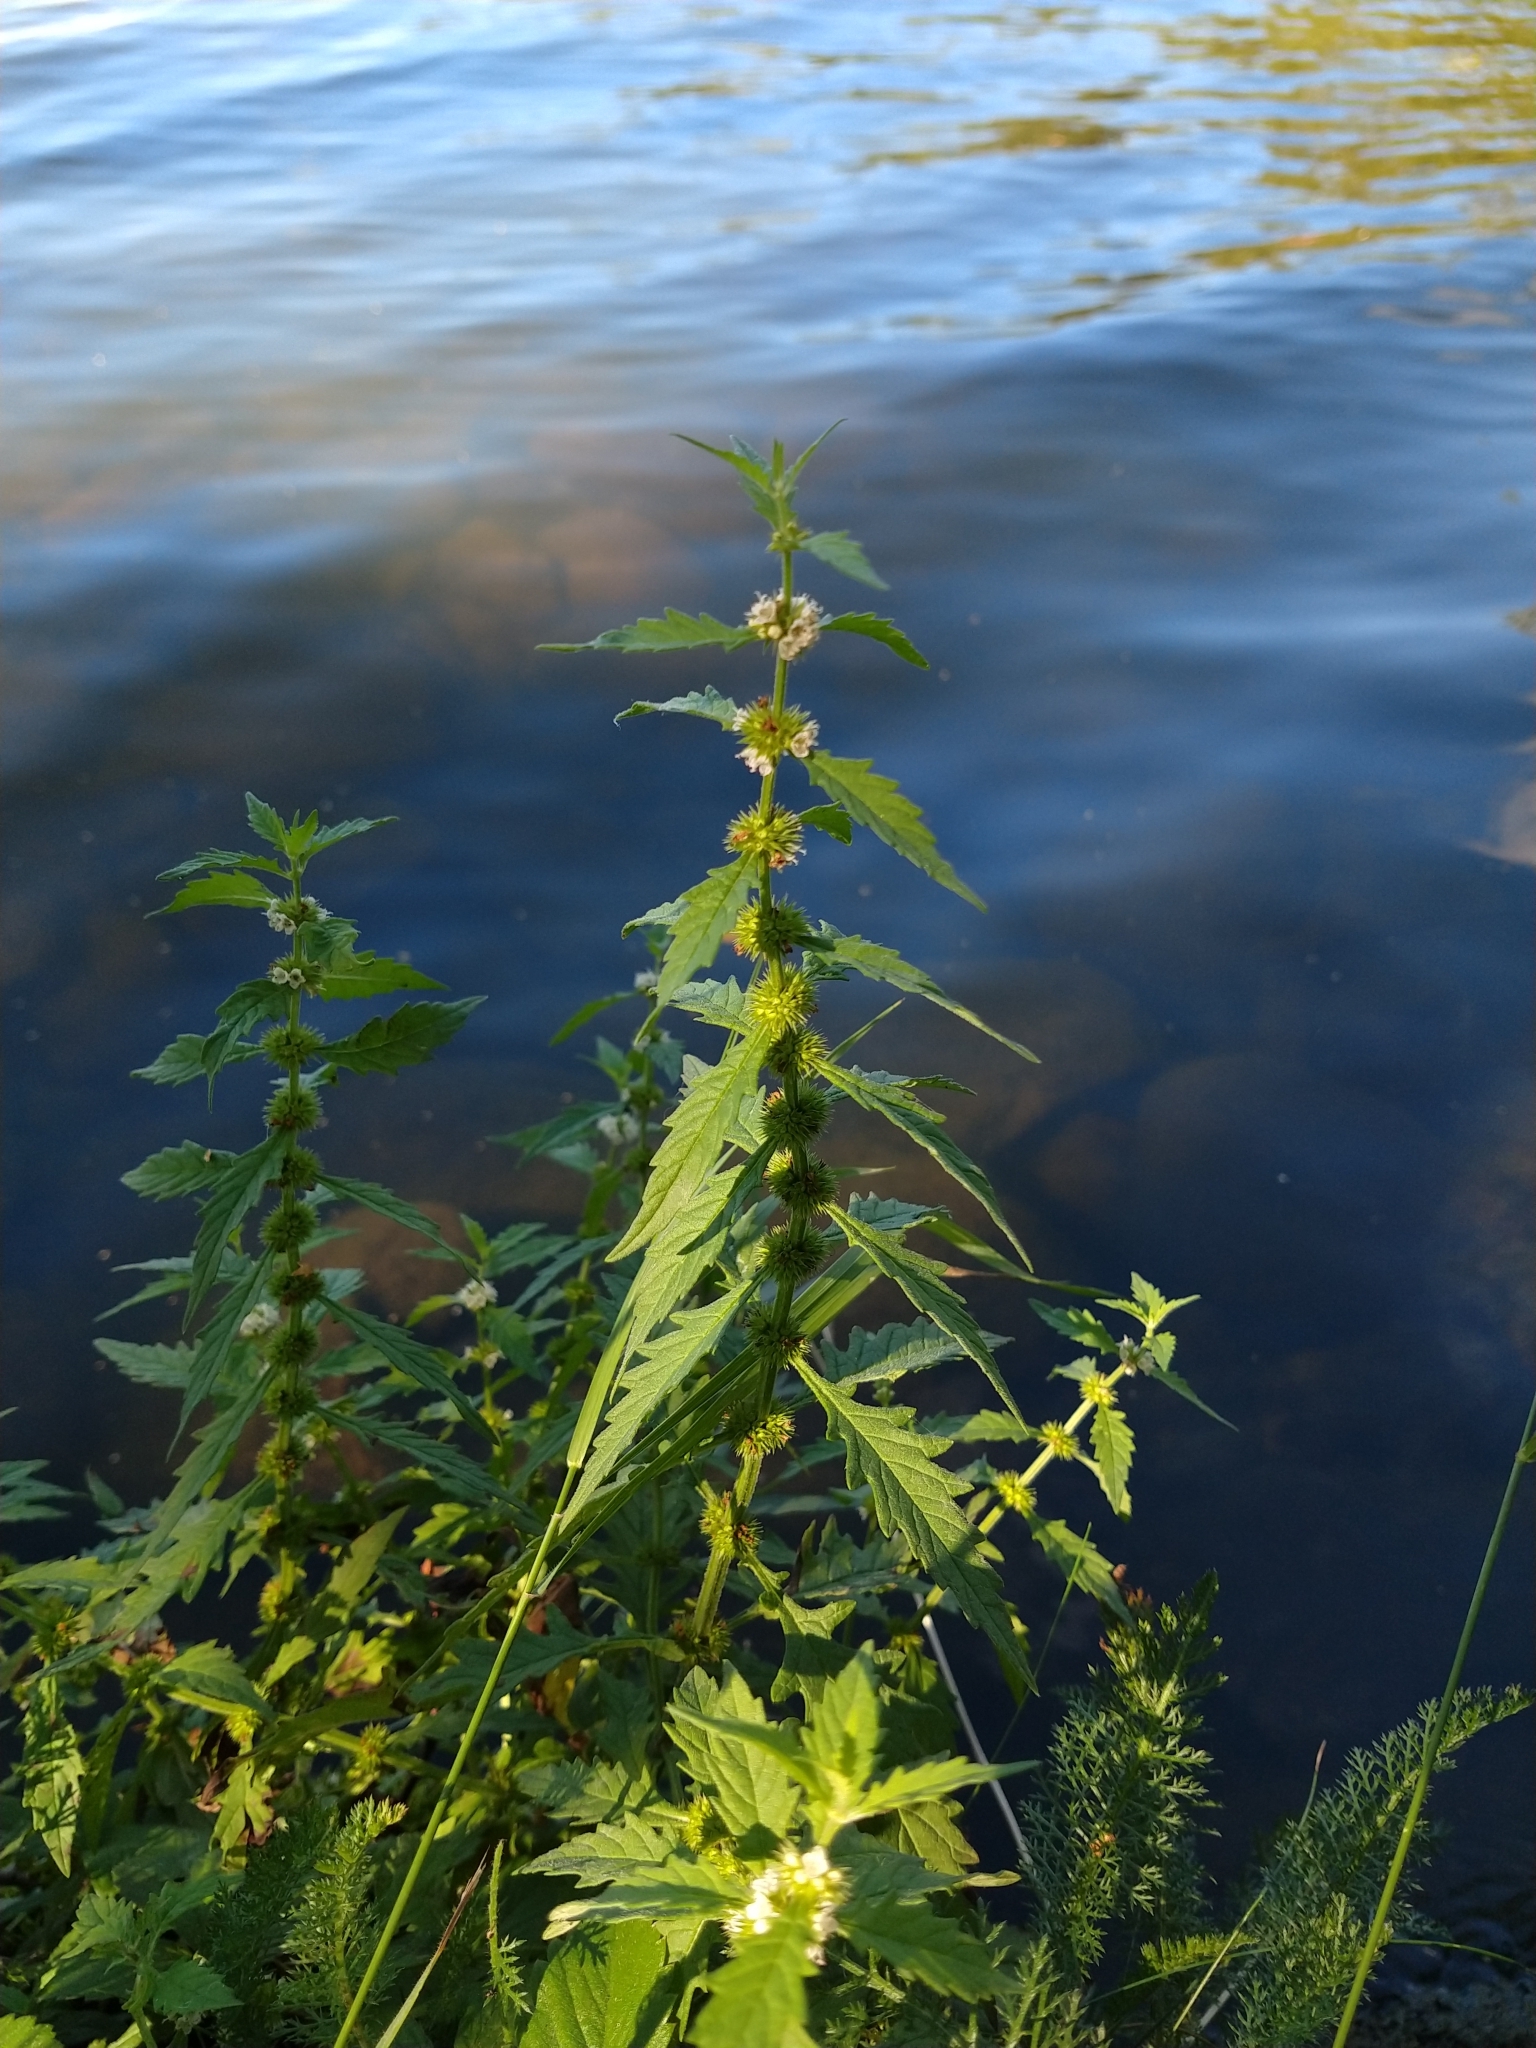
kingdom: Plantae
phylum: Tracheophyta
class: Magnoliopsida
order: Lamiales
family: Lamiaceae
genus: Lycopus
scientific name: Lycopus europaeus
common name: European bugleweed
